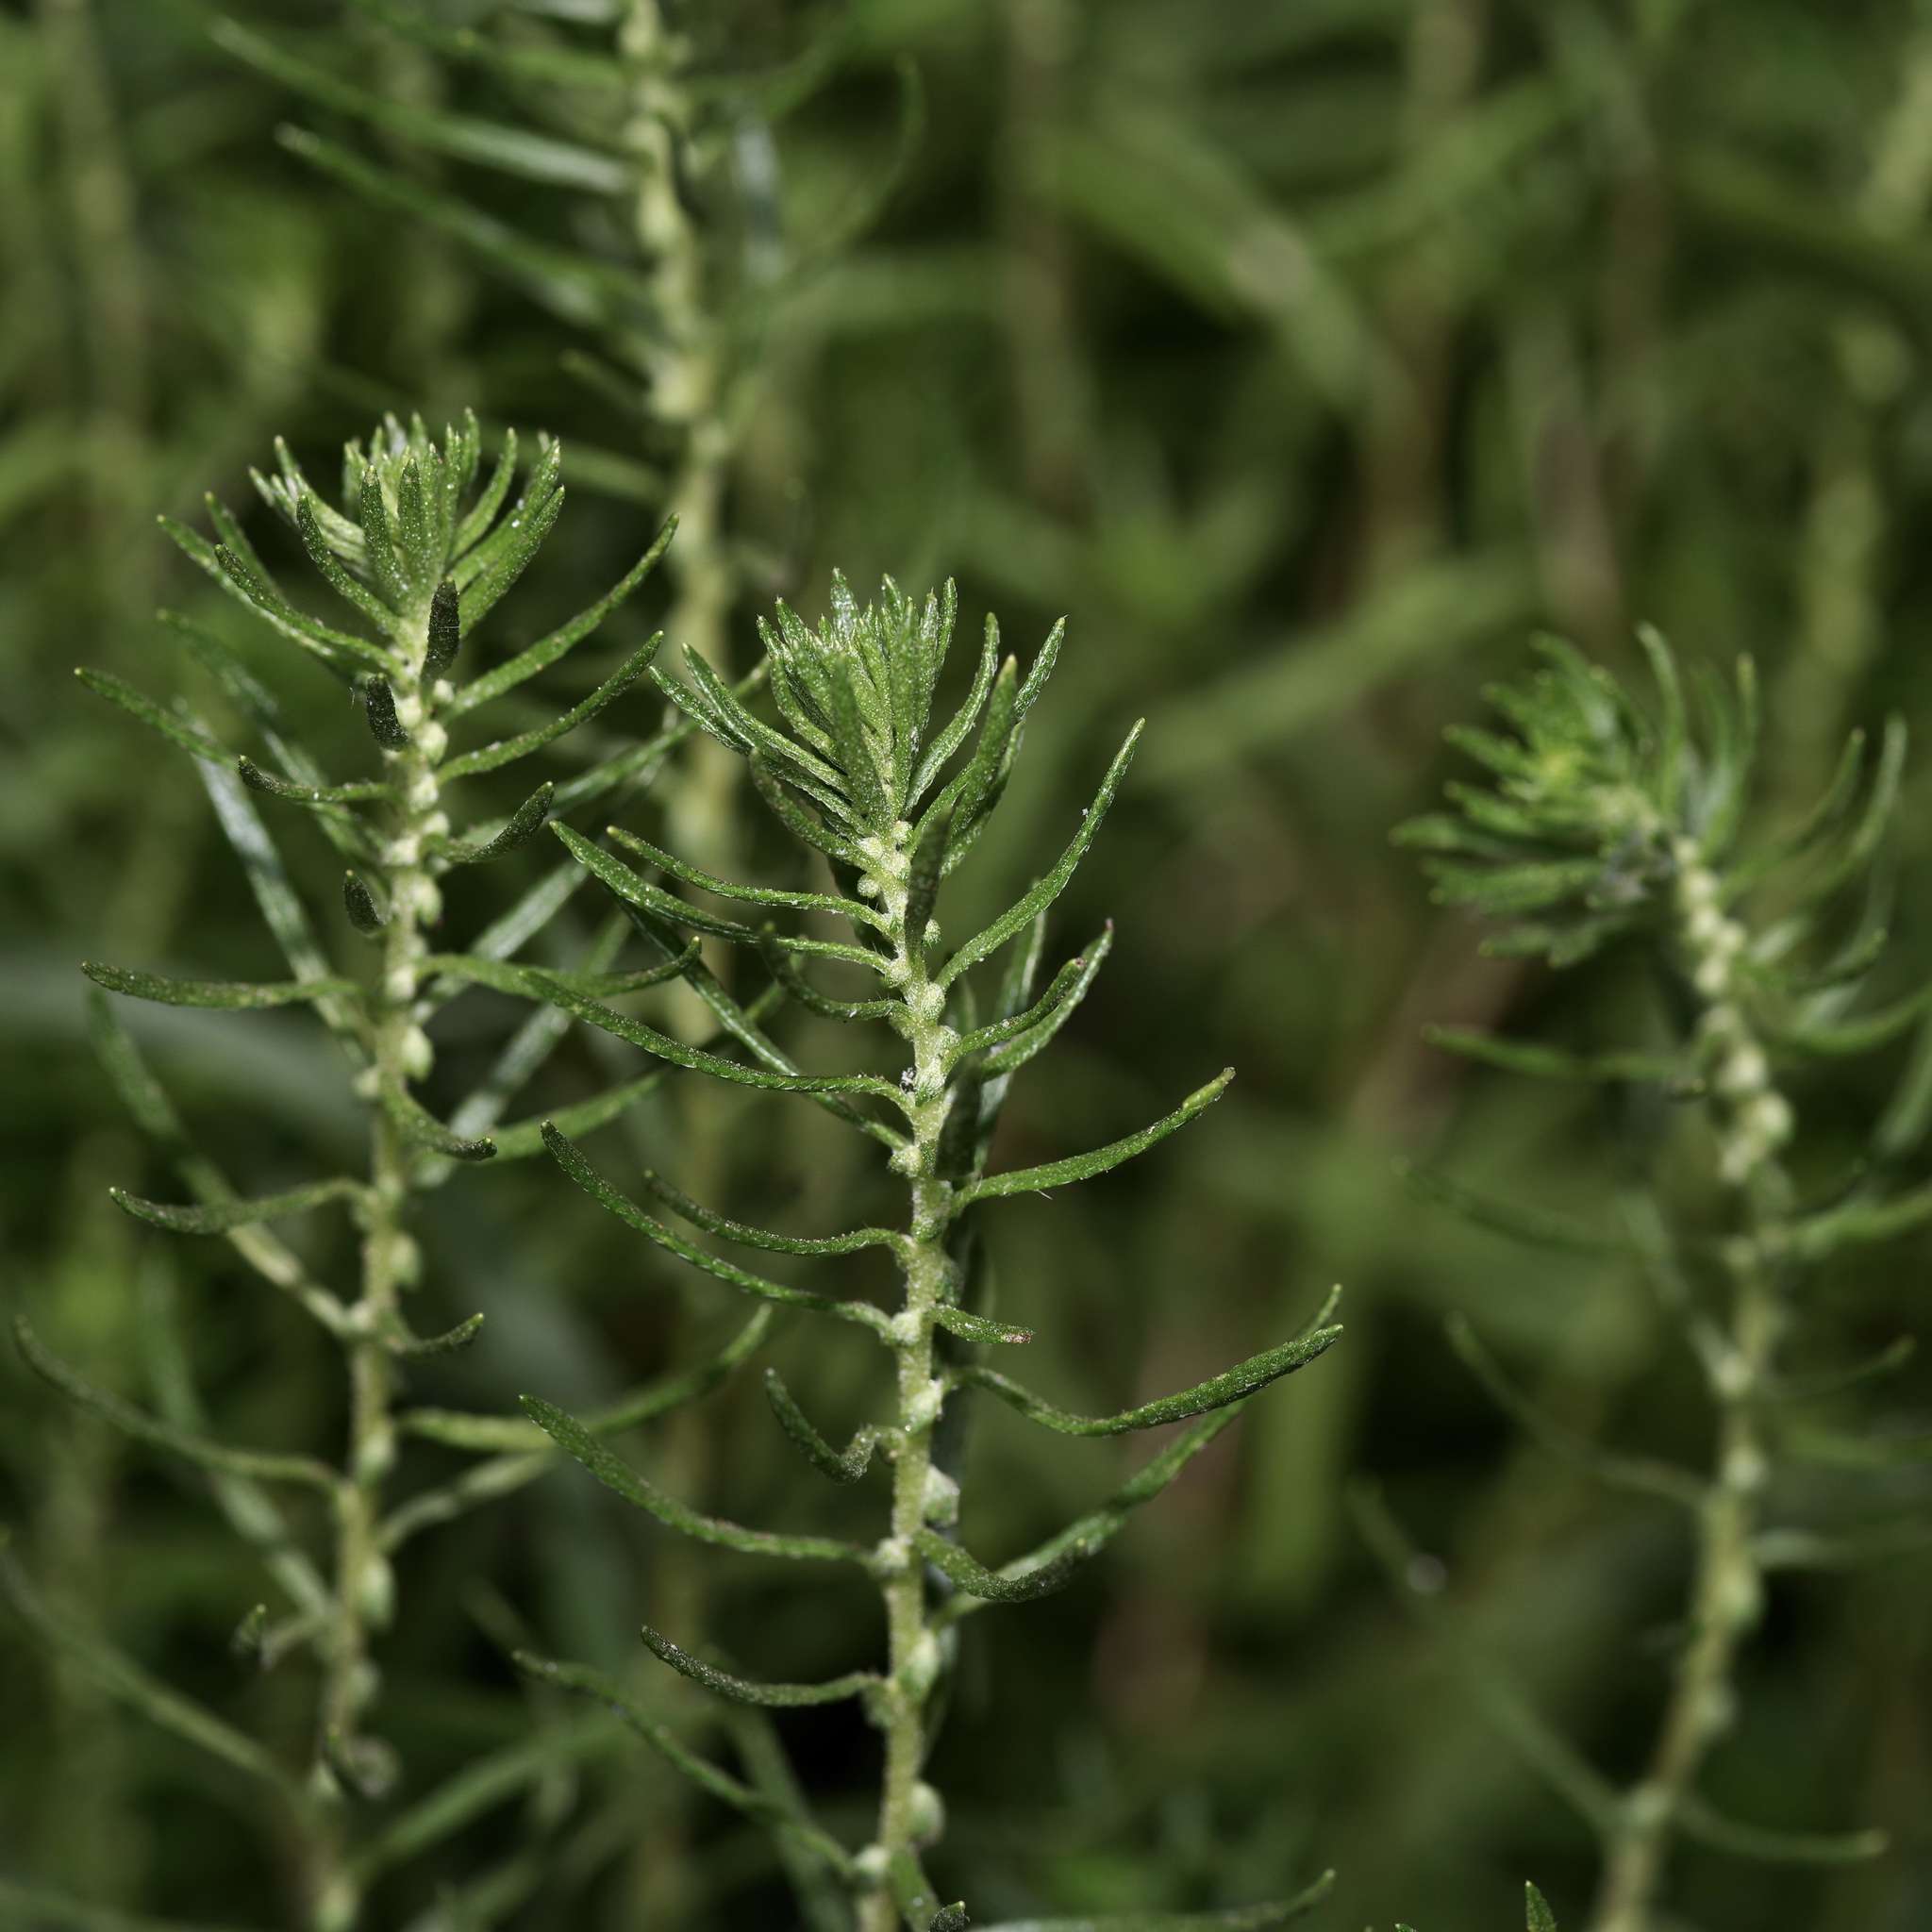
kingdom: Plantae
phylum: Tracheophyta
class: Magnoliopsida
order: Asterales
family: Asteraceae
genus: Iva
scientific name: Iva asperifolia
